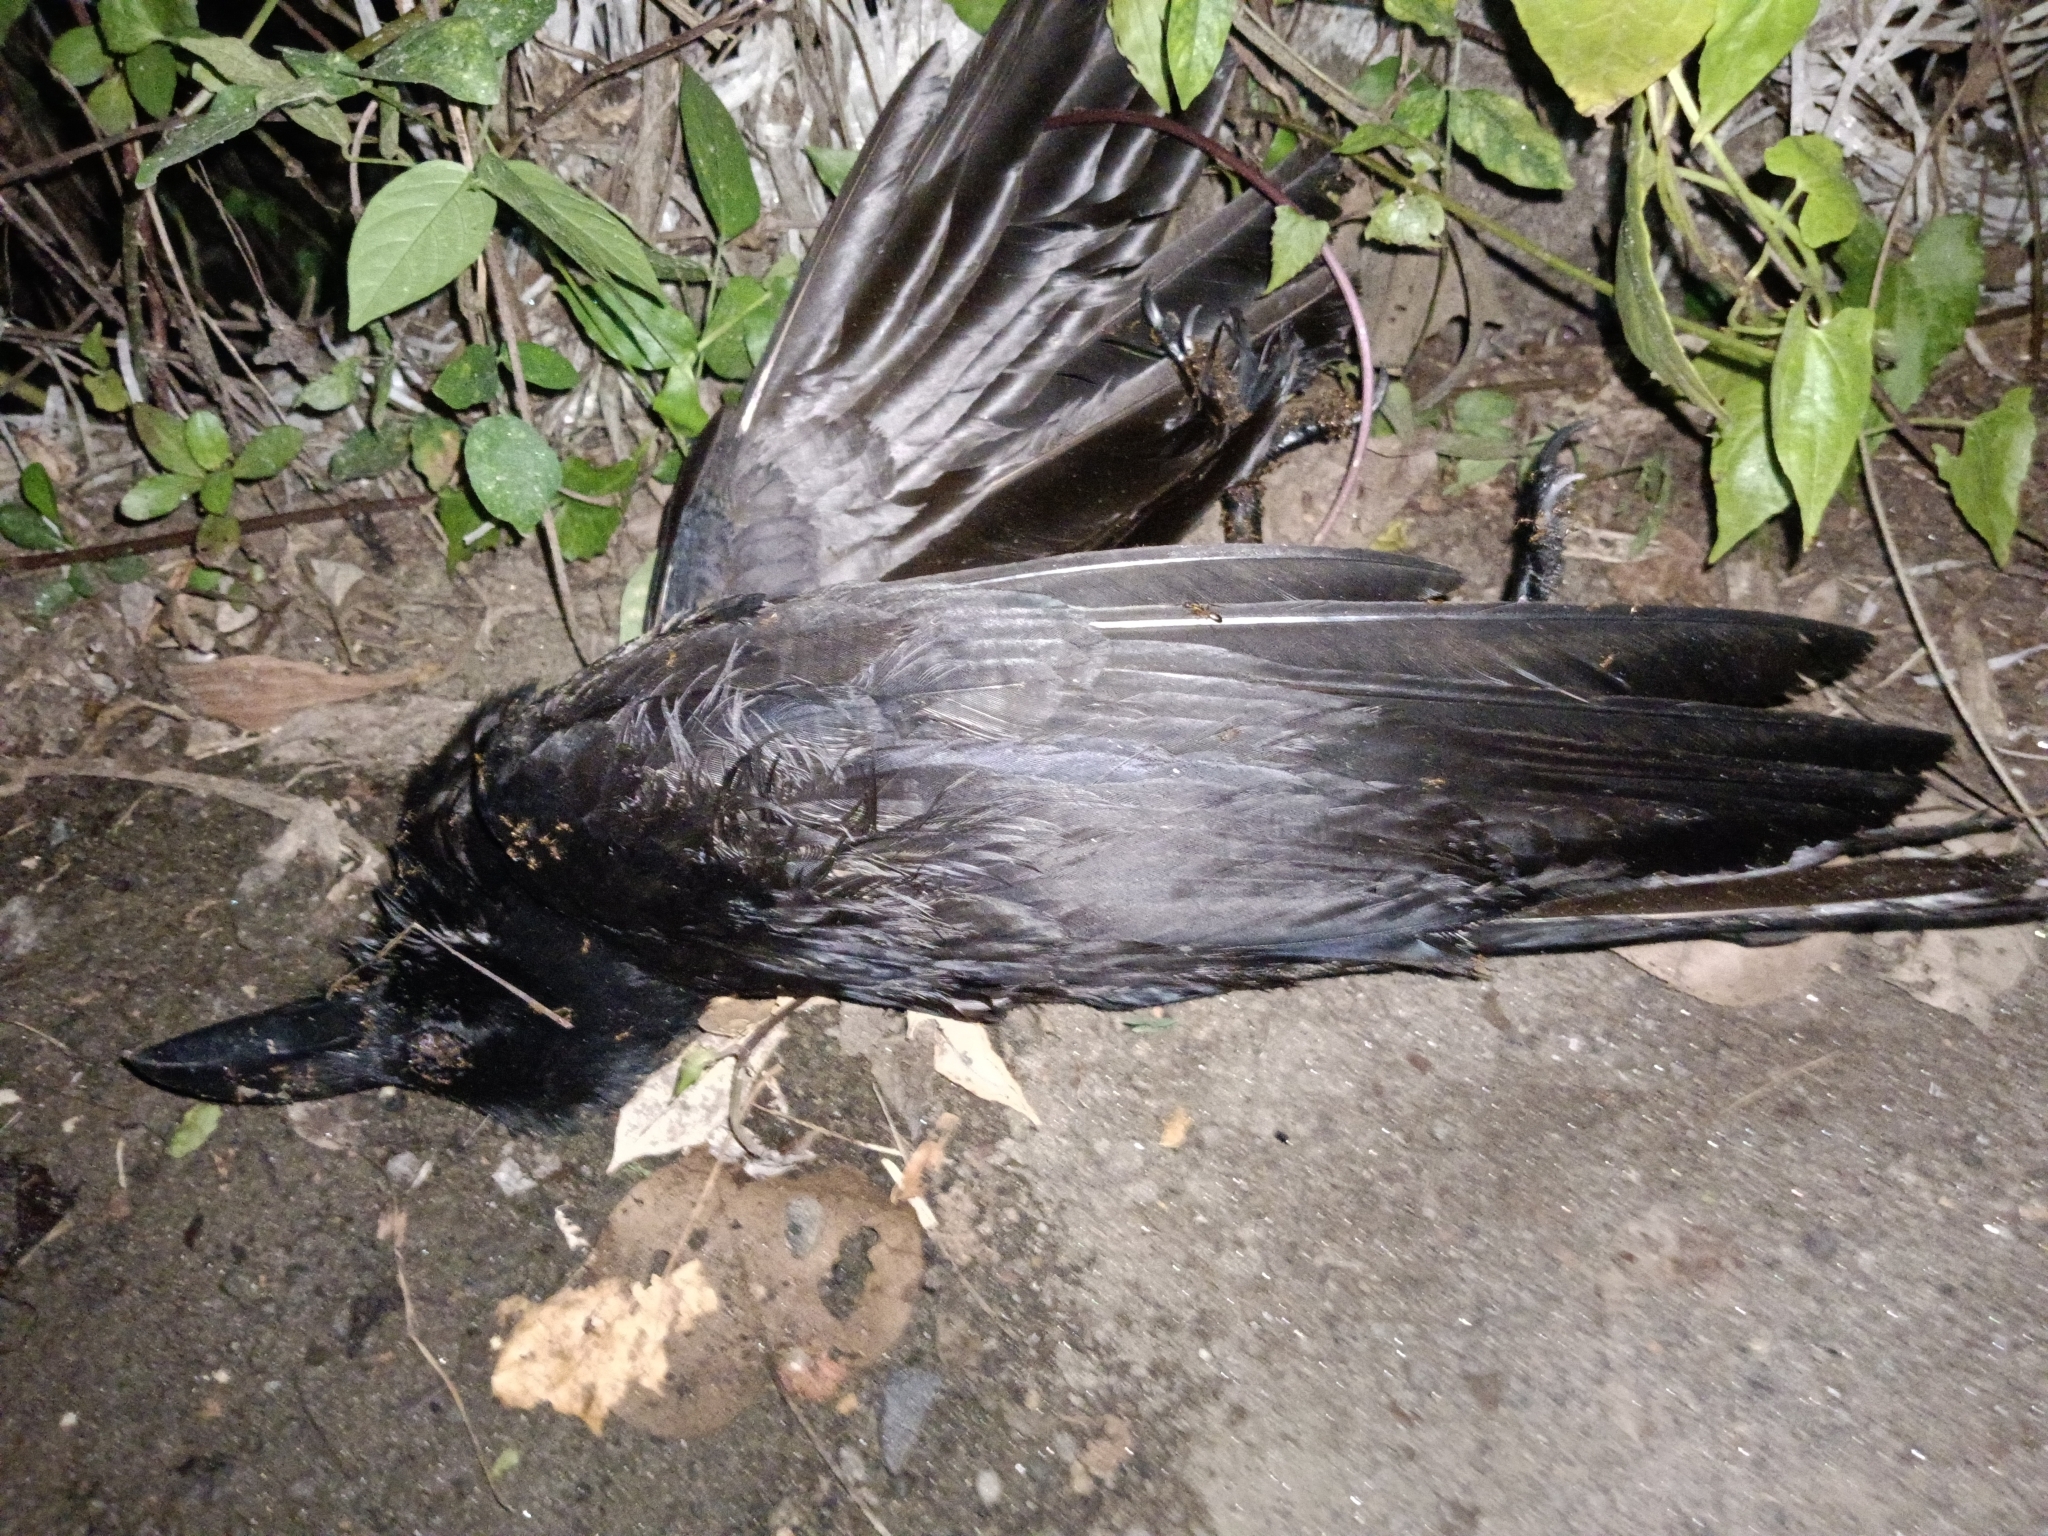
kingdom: Animalia
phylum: Chordata
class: Aves
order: Passeriformes
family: Corvidae
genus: Corvus
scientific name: Corvus macrorhynchos
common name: Large-billed crow
